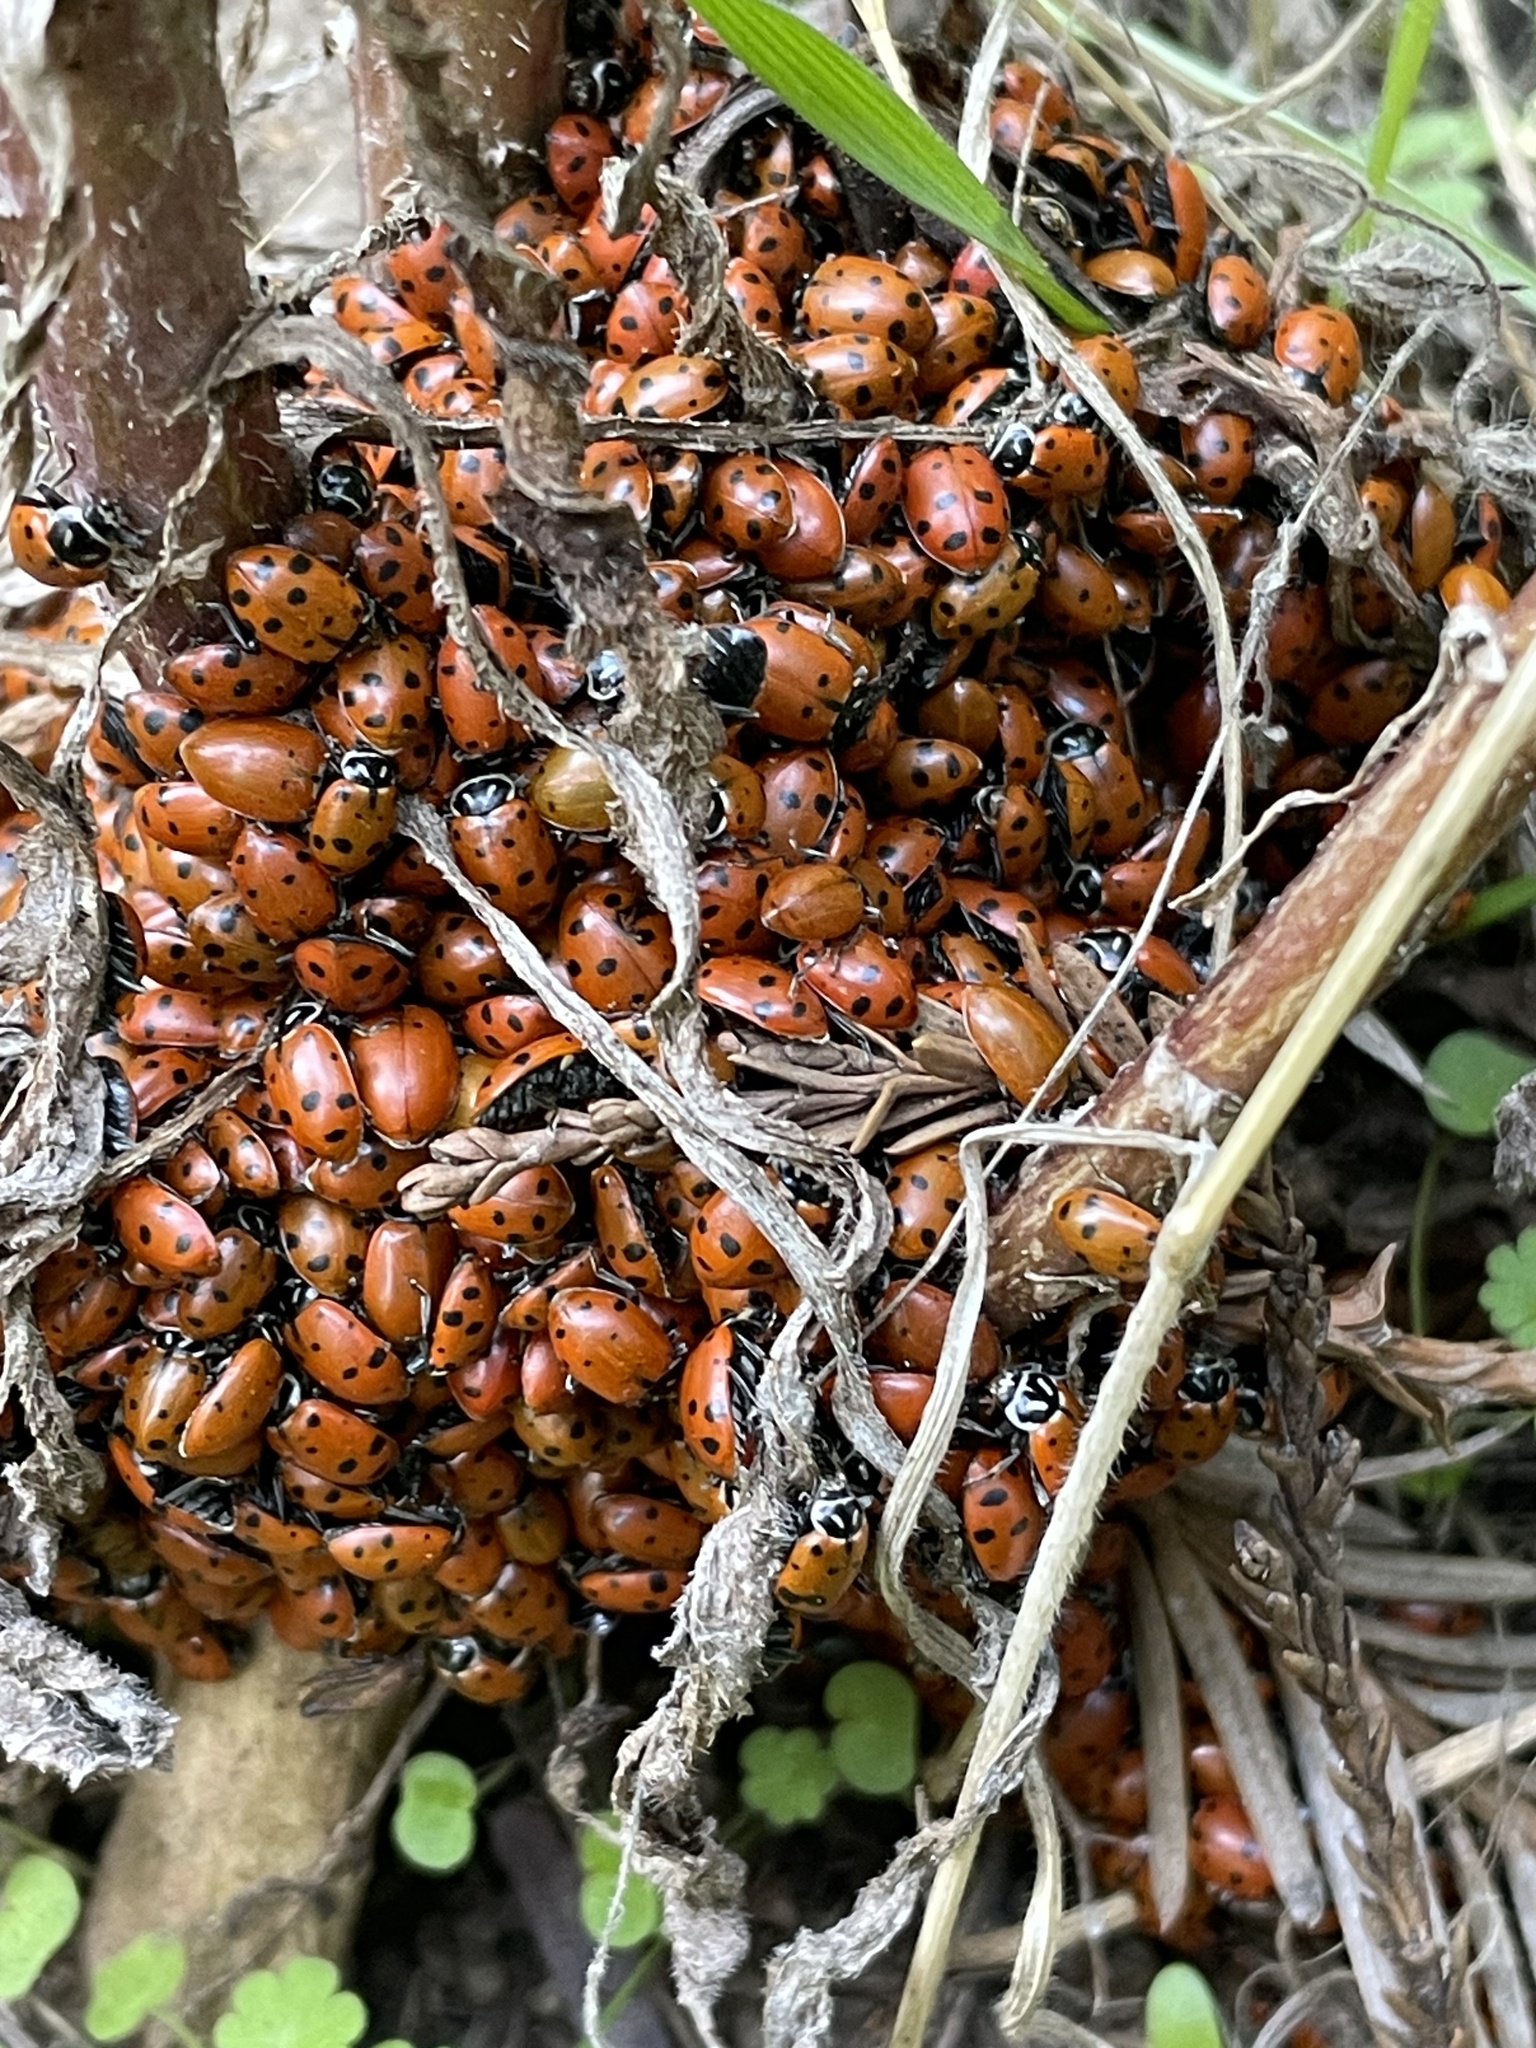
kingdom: Animalia
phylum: Arthropoda
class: Insecta
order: Coleoptera
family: Coccinellidae
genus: Hippodamia
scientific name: Hippodamia convergens
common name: Convergent lady beetle
